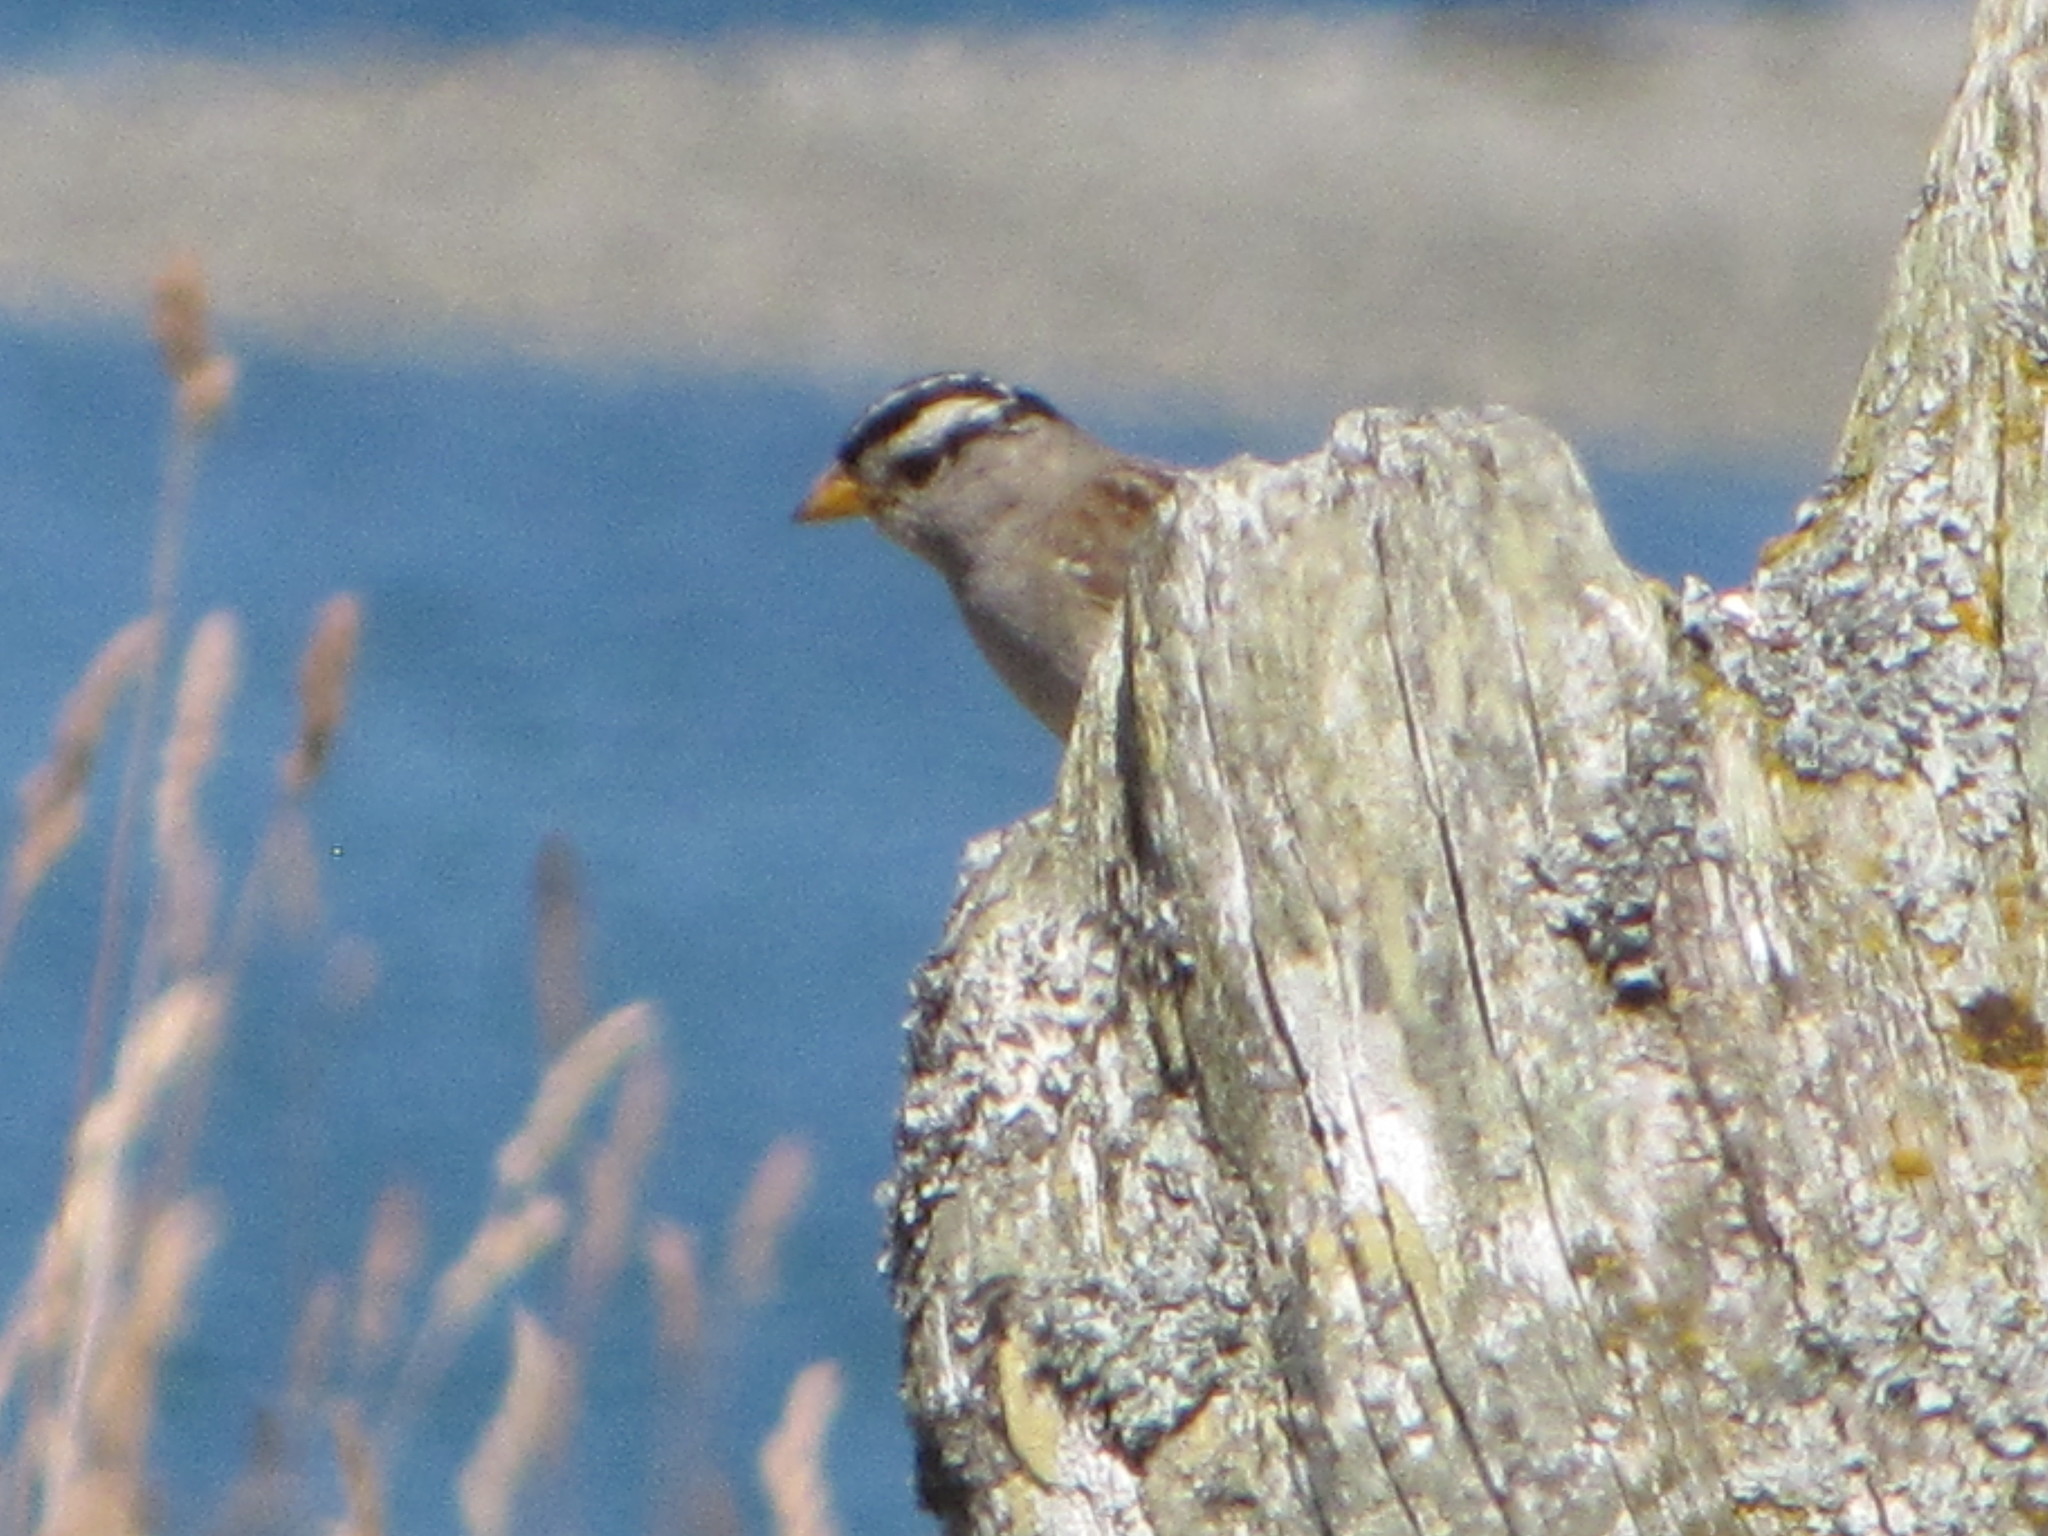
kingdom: Animalia
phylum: Chordata
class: Aves
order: Passeriformes
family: Passerellidae
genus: Zonotrichia
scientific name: Zonotrichia leucophrys
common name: White-crowned sparrow
